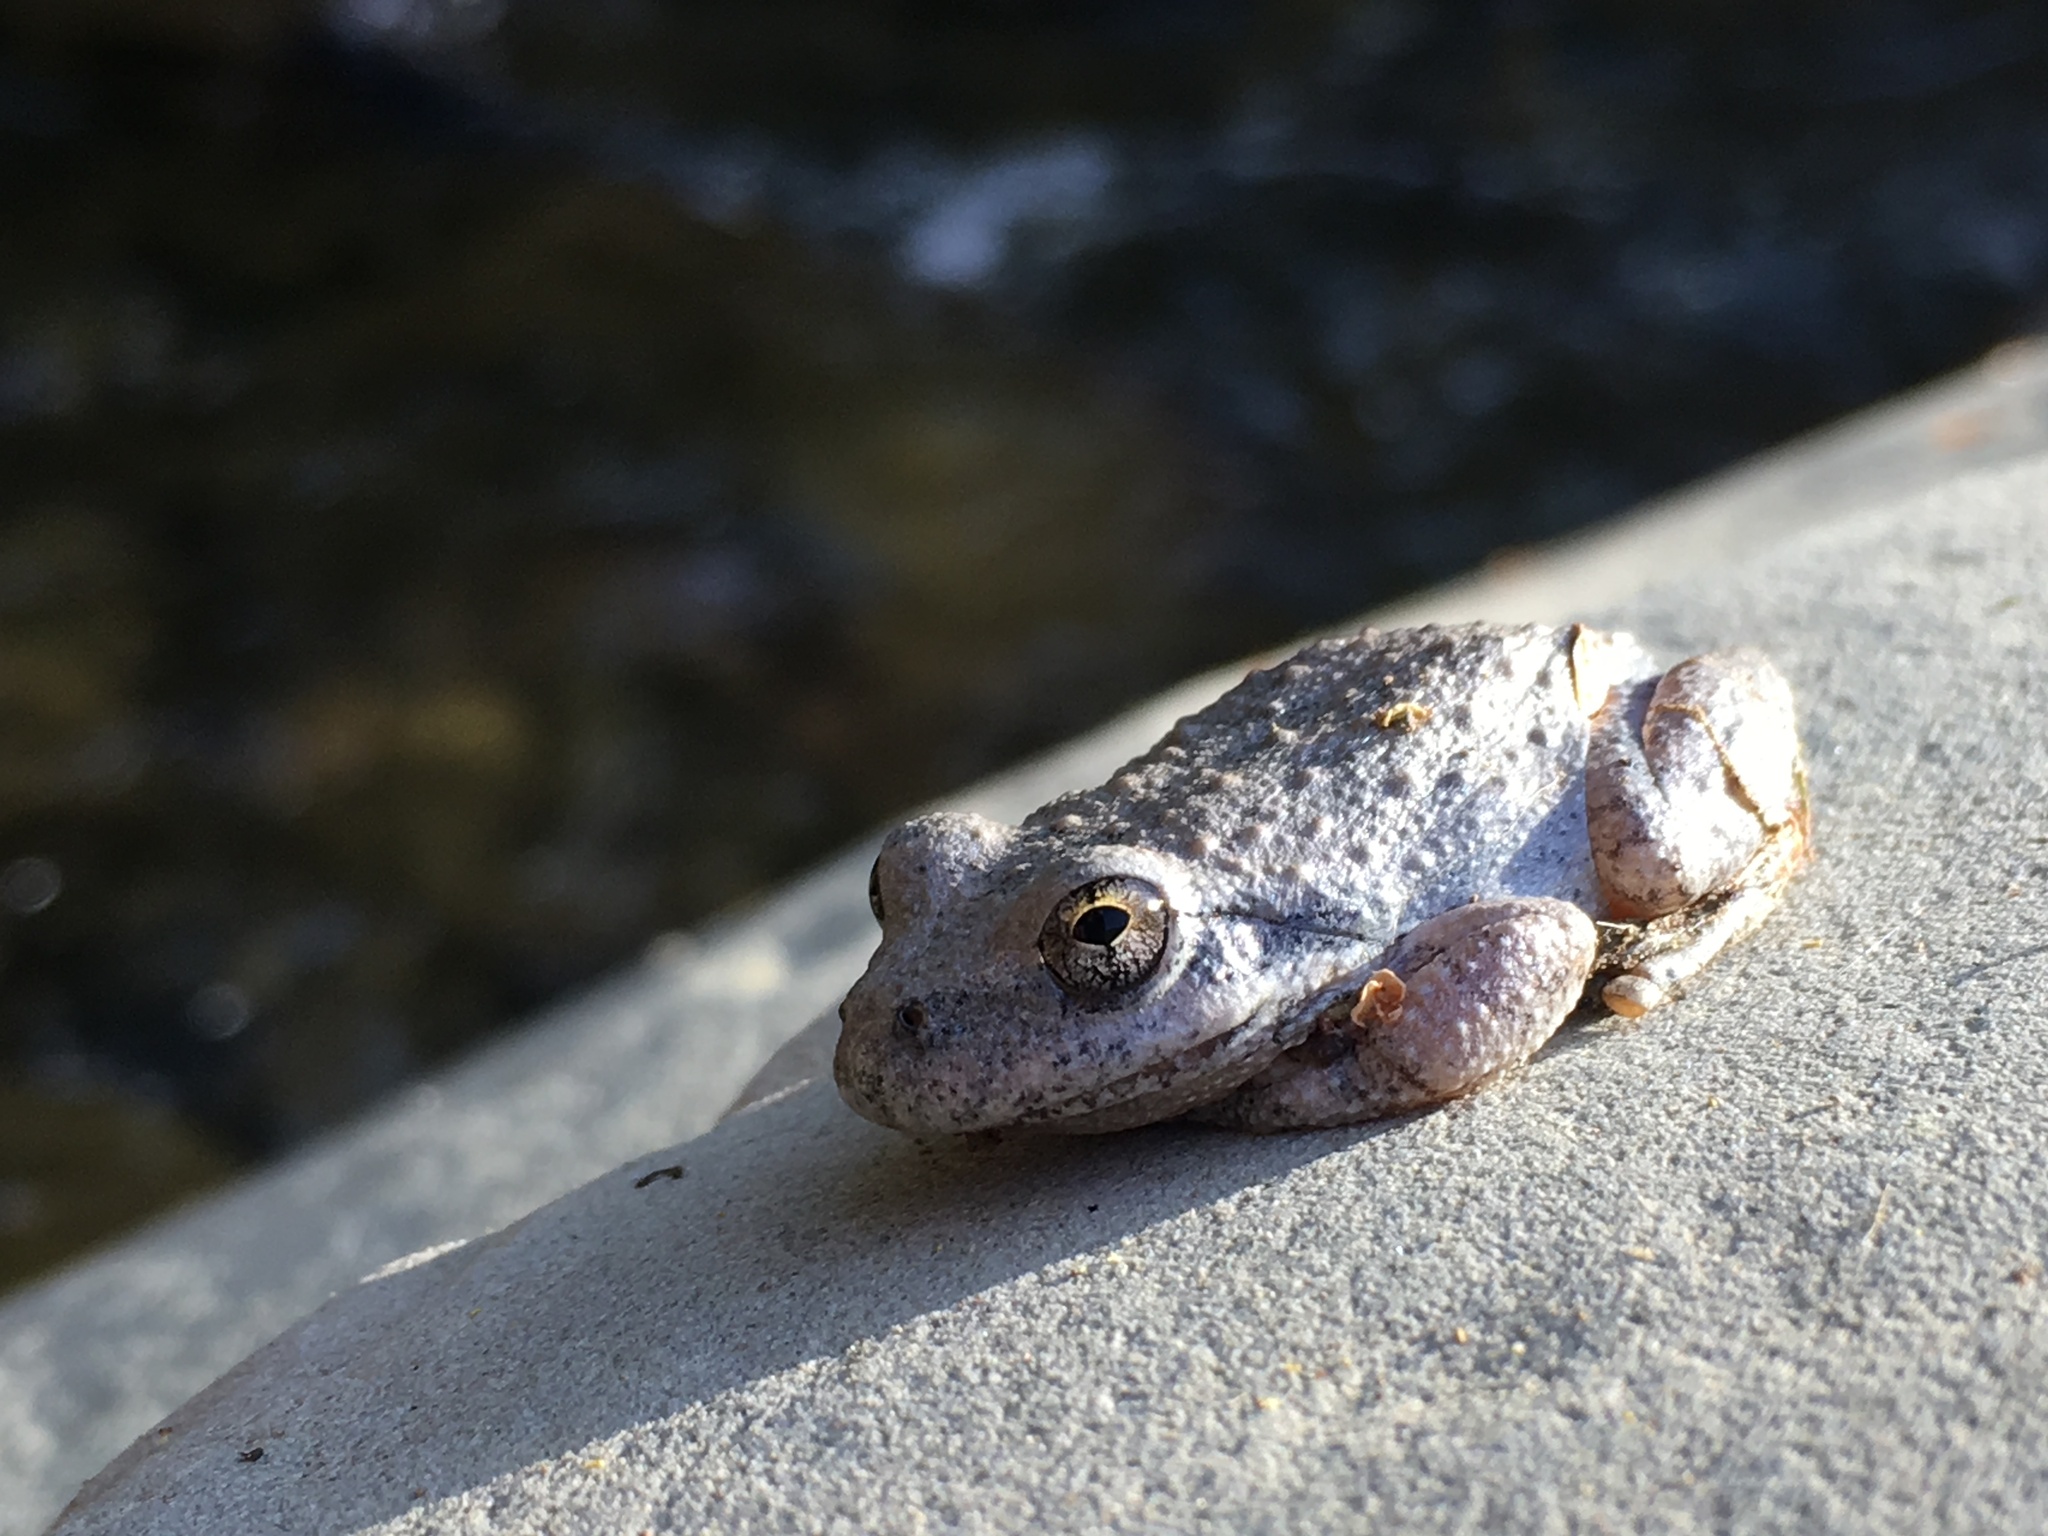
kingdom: Animalia
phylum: Chordata
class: Amphibia
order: Anura
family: Hylidae
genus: Pseudacris
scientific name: Pseudacris cadaverina
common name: California chorus frog
